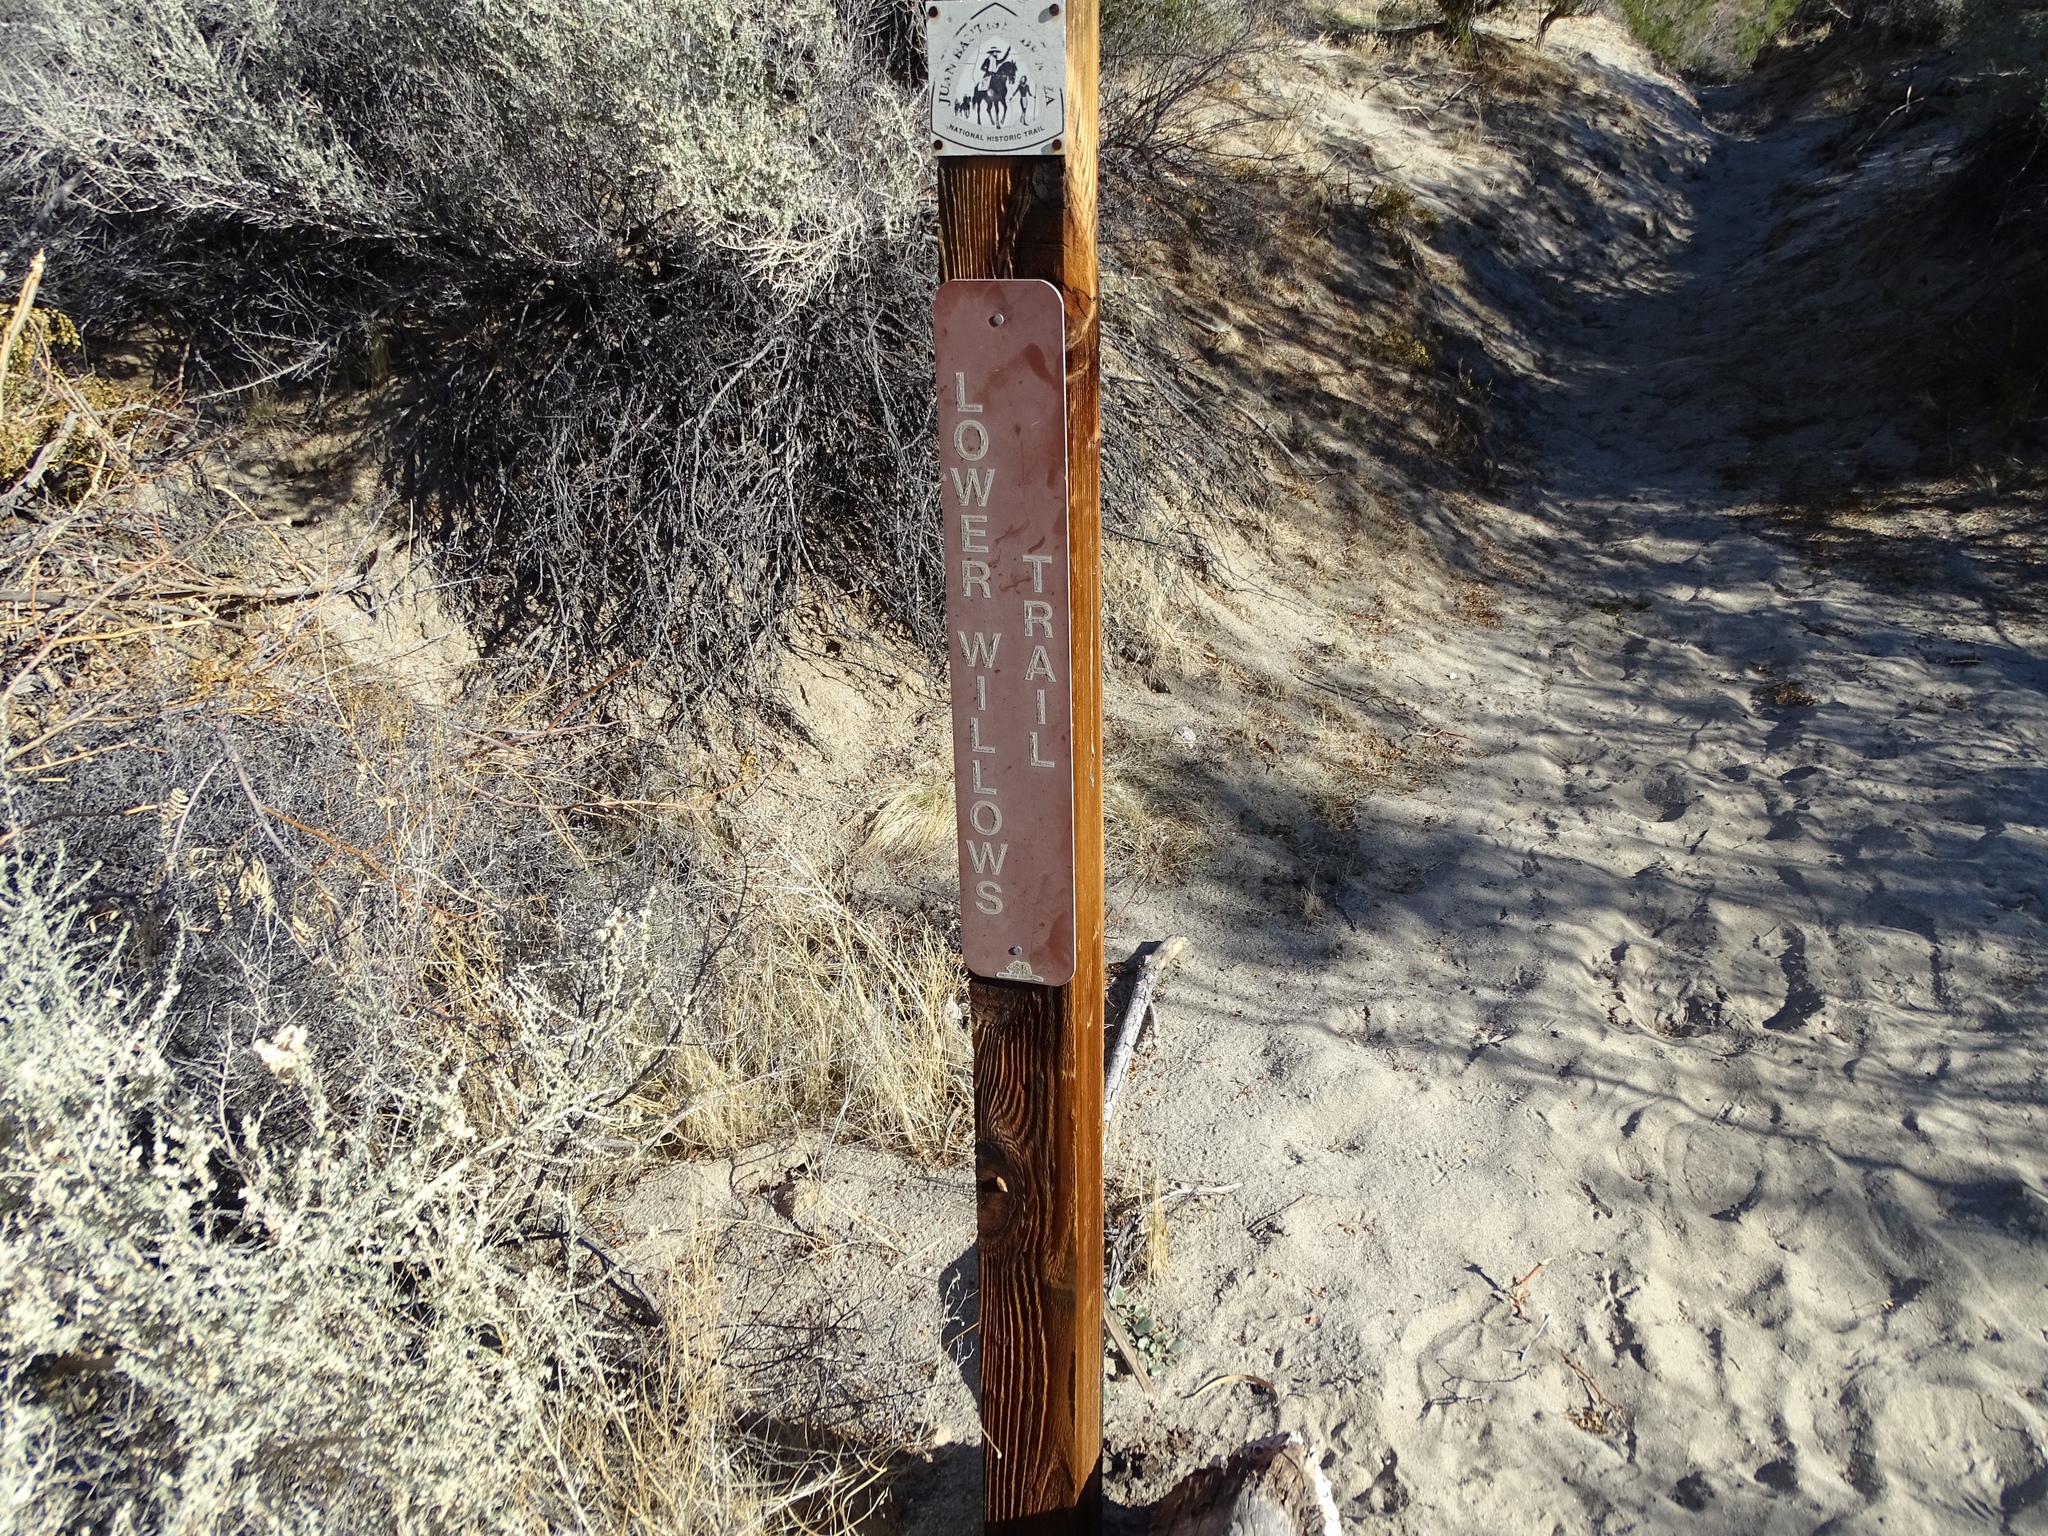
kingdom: Plantae
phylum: Tracheophyta
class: Magnoliopsida
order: Santalales
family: Viscaceae
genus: Phoradendron
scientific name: Phoradendron californicum
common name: Acacia mistletoe
